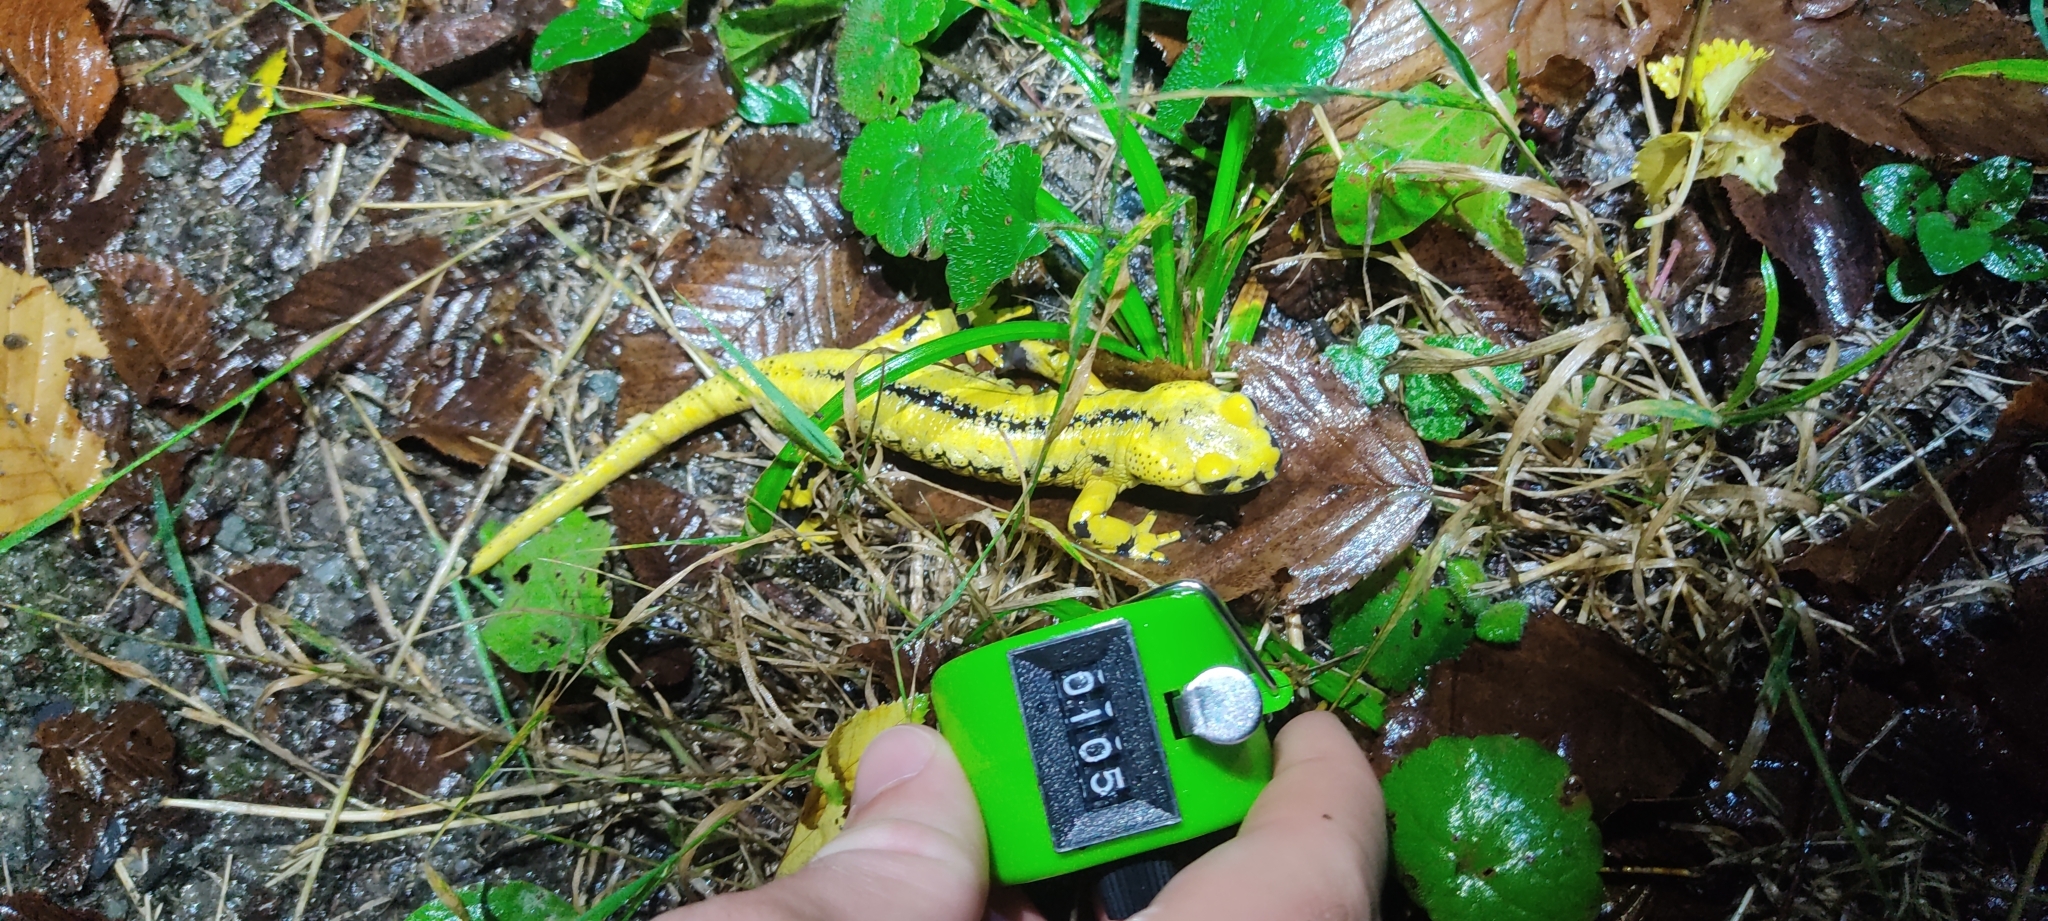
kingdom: Animalia
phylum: Chordata
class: Amphibia
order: Caudata
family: Salamandridae
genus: Salamandra
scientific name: Salamandra salamandra
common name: Fire salamander
